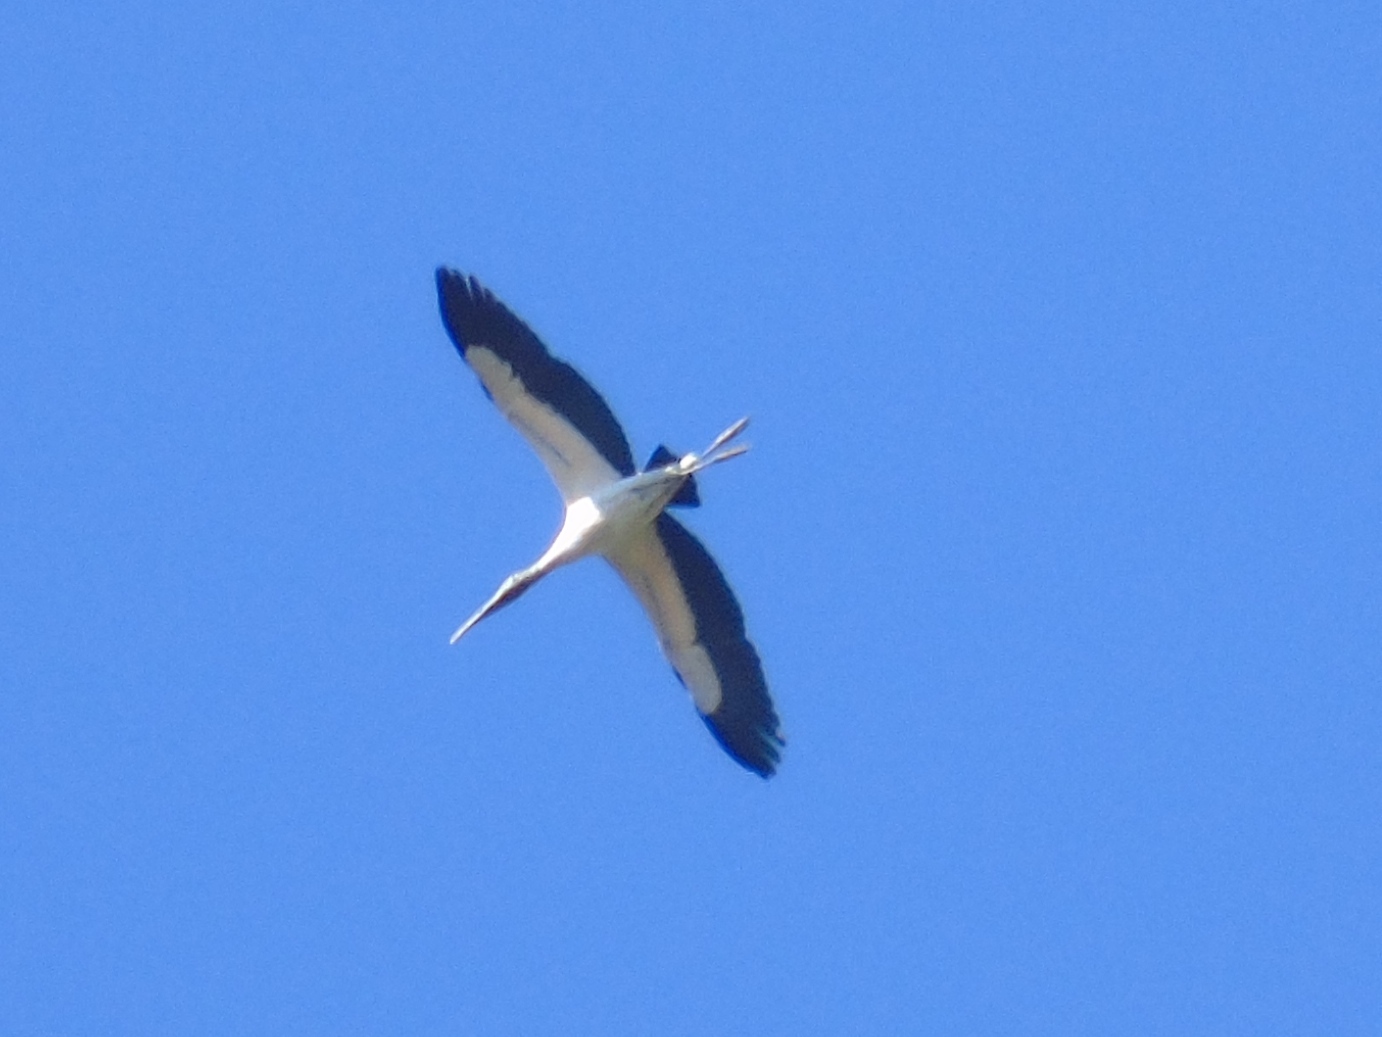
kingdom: Animalia
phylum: Chordata
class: Aves
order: Ciconiiformes
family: Ciconiidae
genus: Mycteria
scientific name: Mycteria americana
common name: Wood stork
